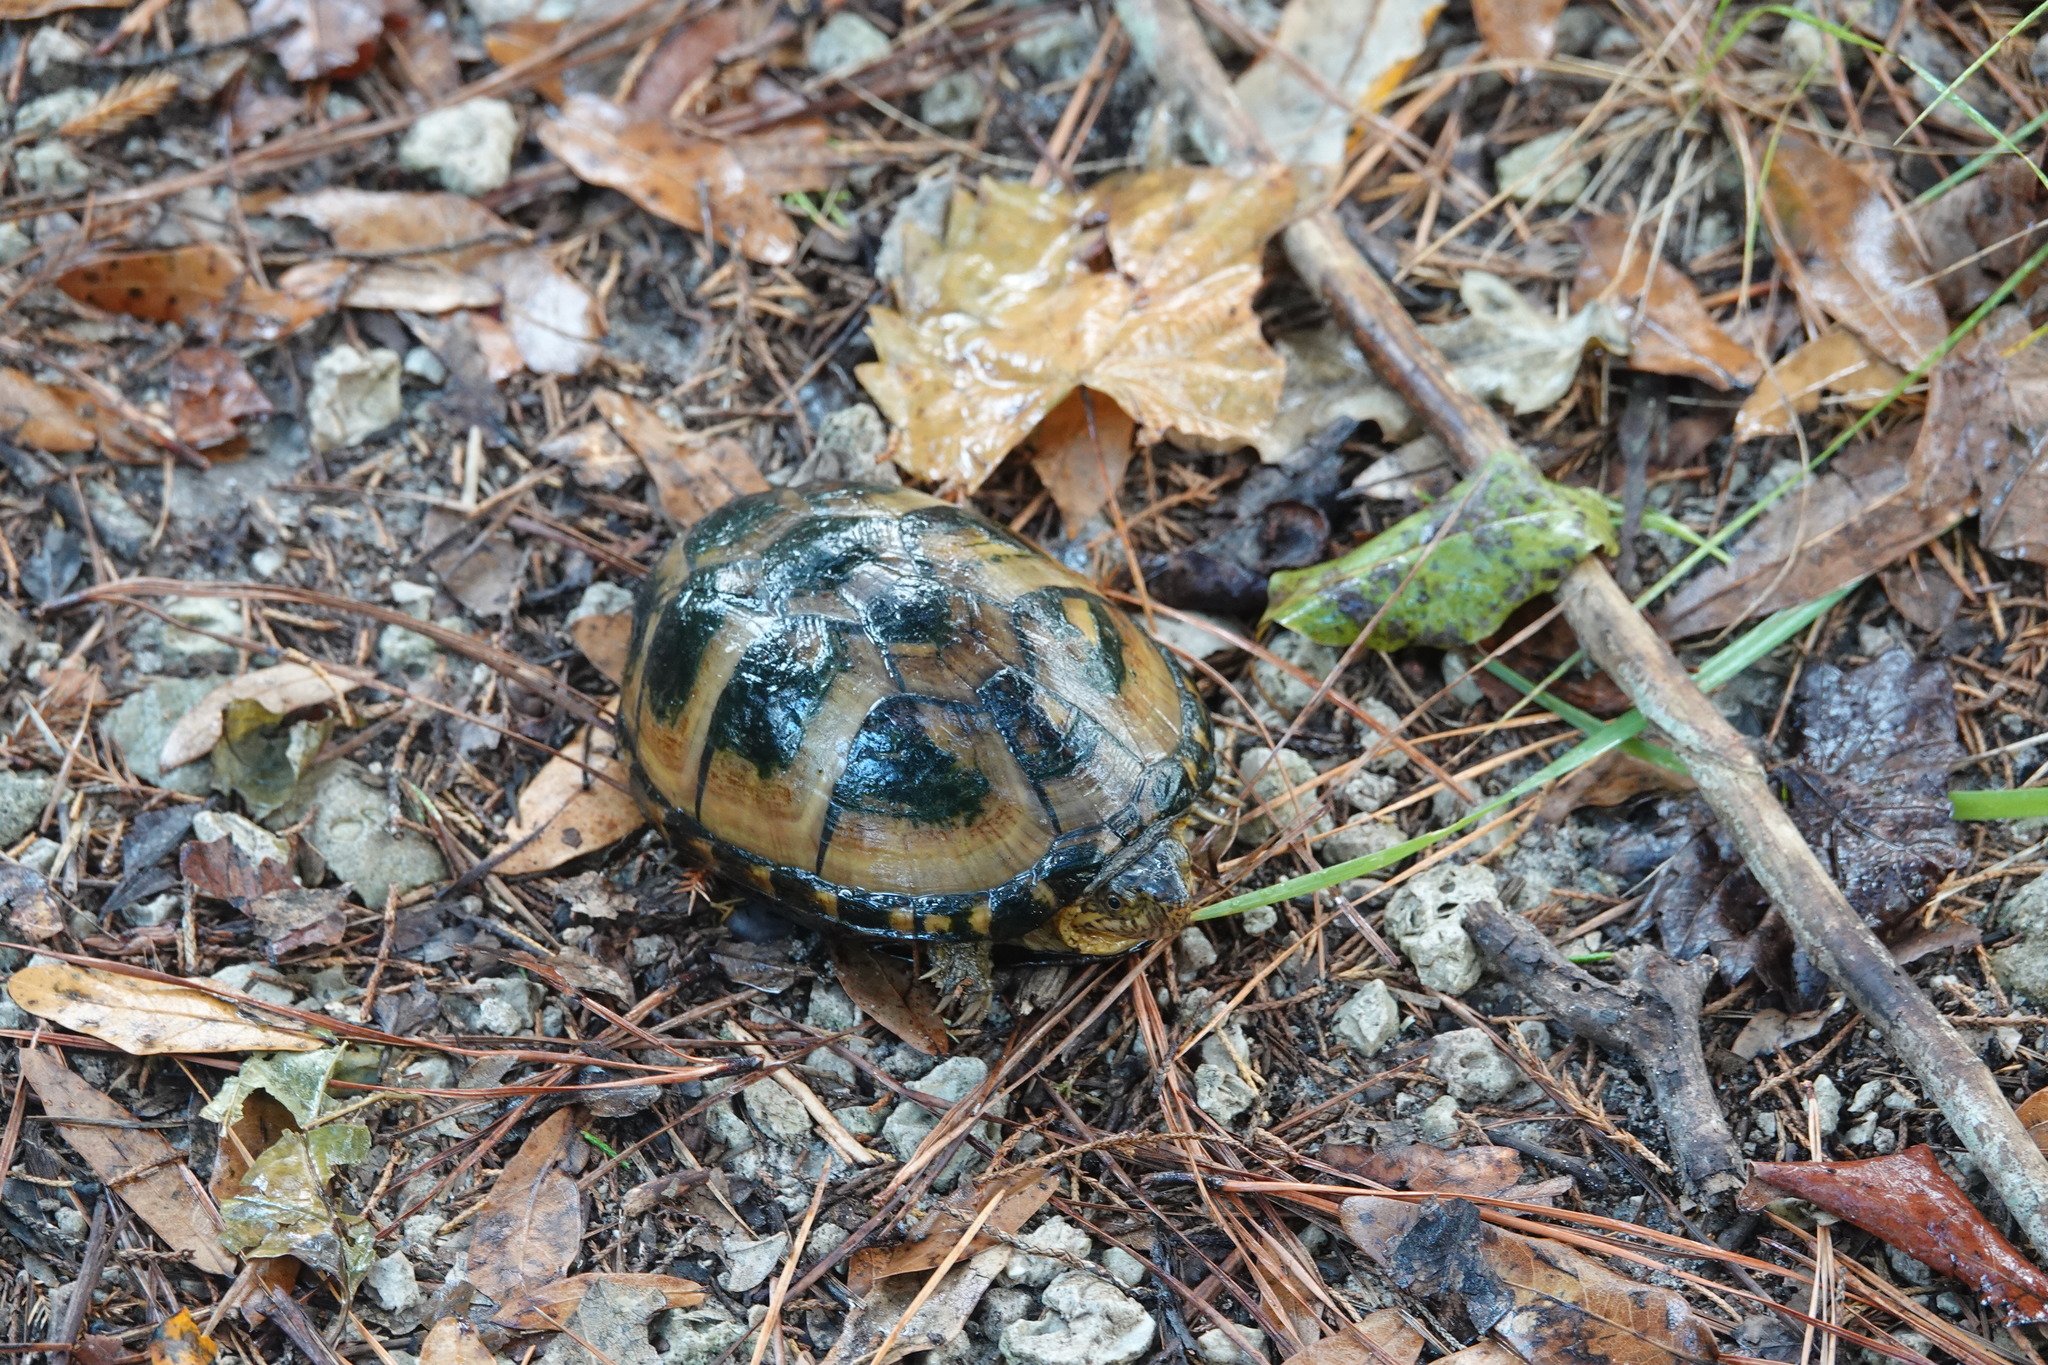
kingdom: Animalia
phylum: Chordata
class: Testudines
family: Kinosternidae
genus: Kinosternon
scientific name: Kinosternon subrubrum
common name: Eastern mud turtle
